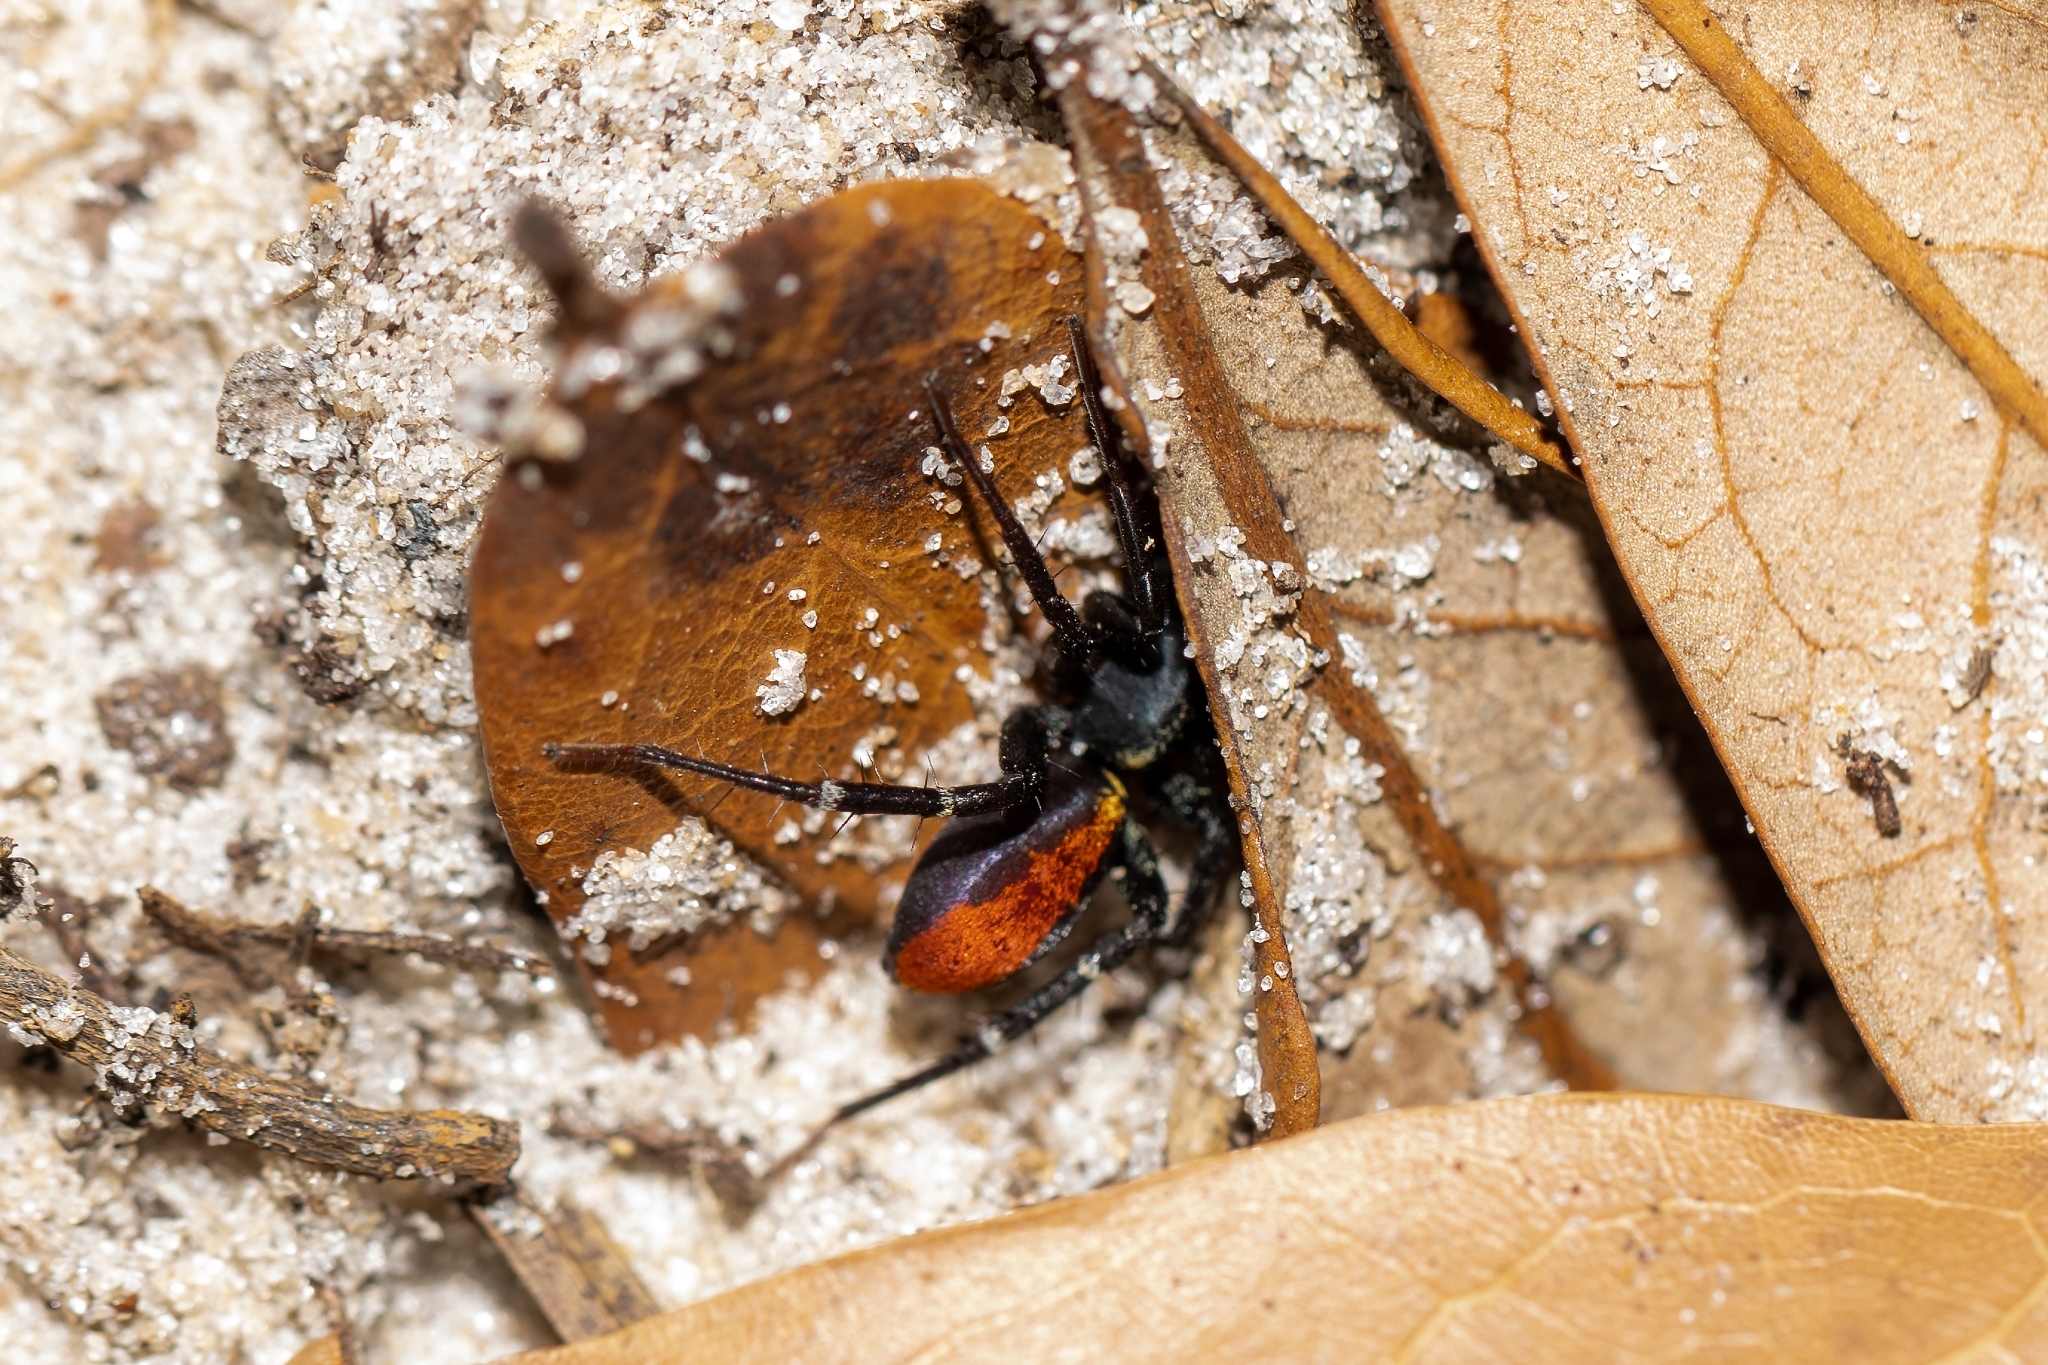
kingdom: Animalia
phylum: Arthropoda
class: Arachnida
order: Araneae
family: Corinnidae
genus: Castianeira
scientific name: Castianeira floridana
